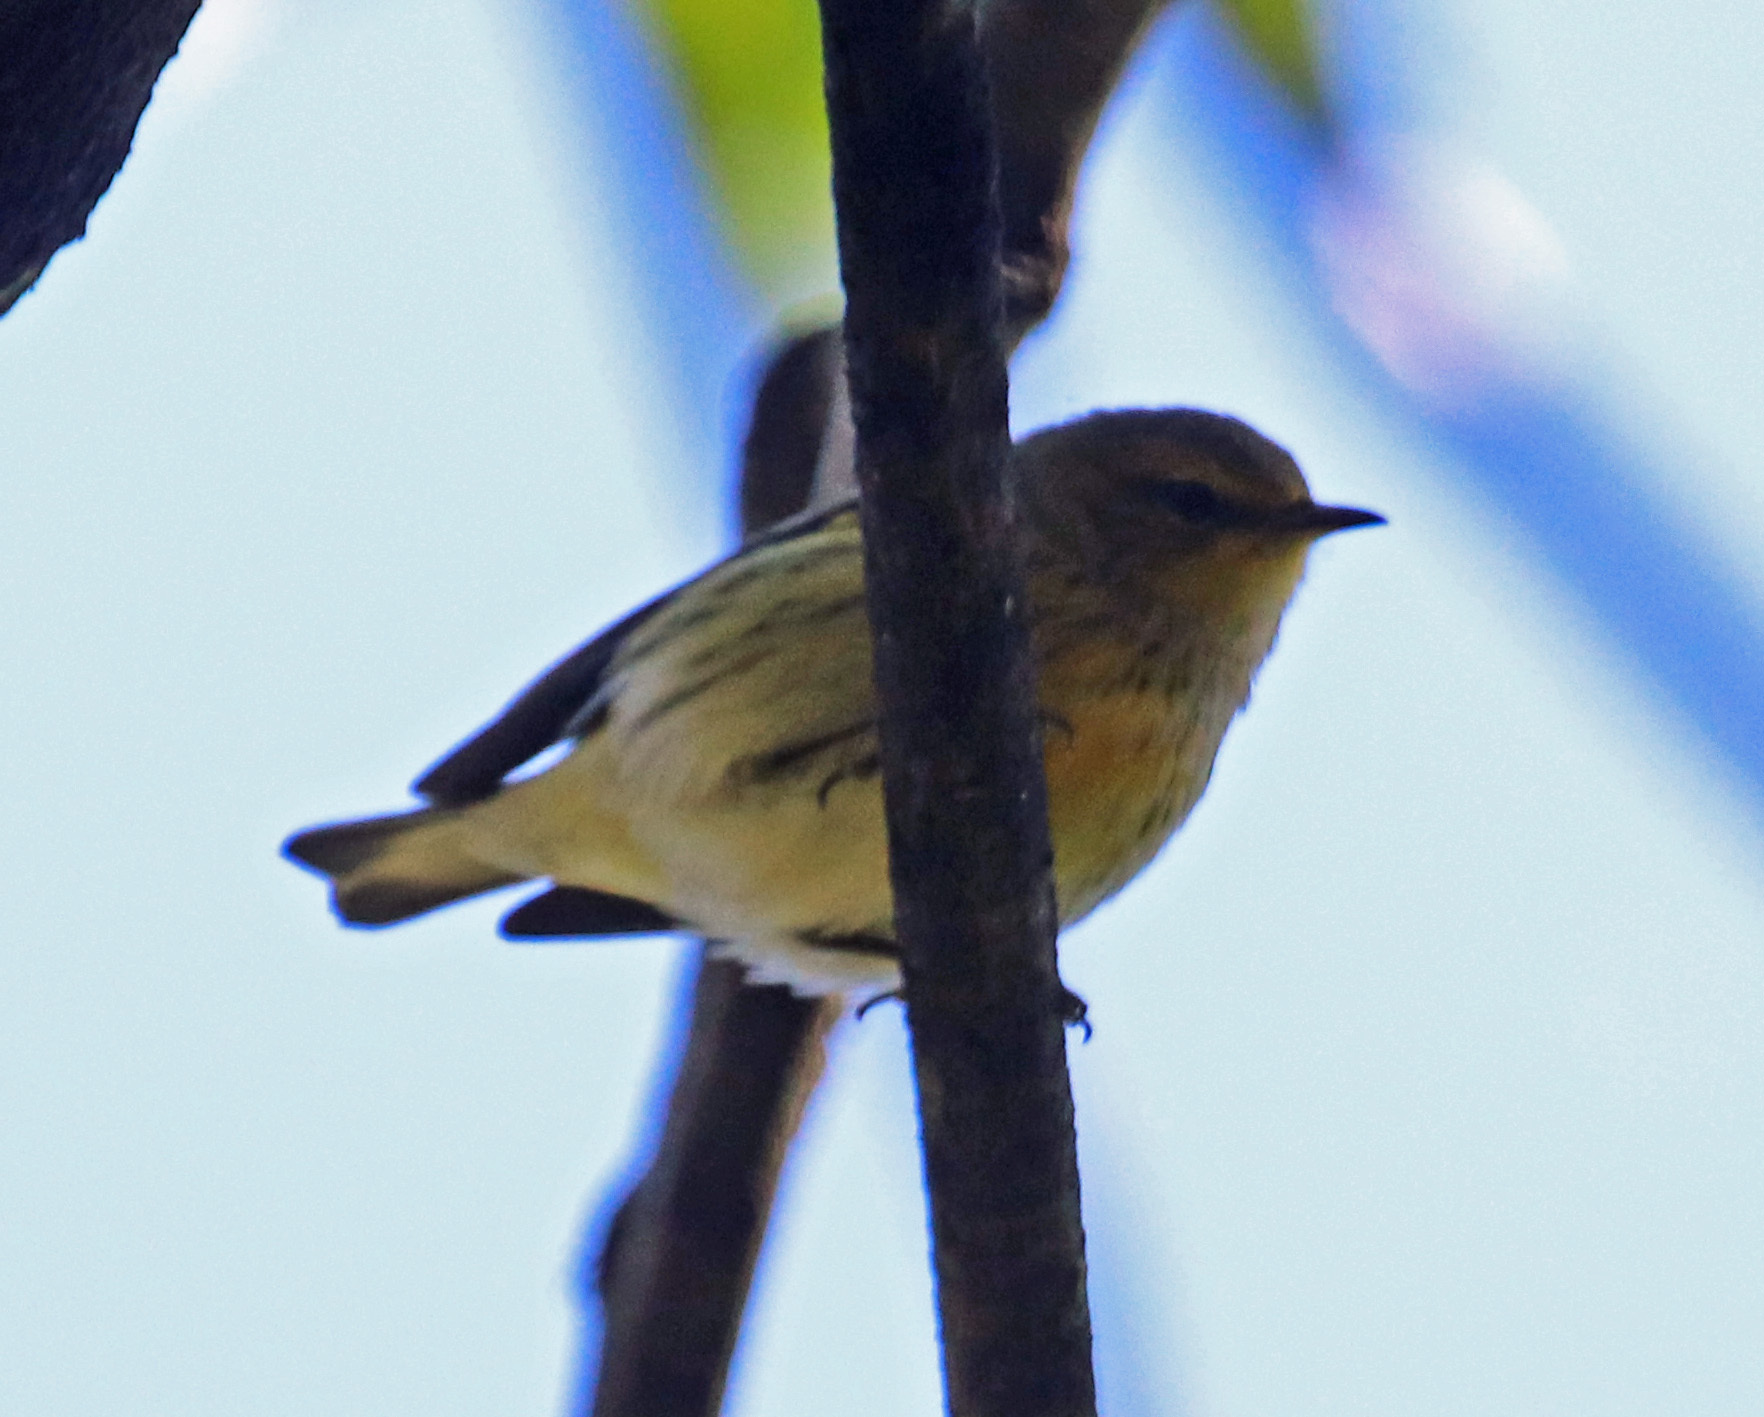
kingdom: Animalia
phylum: Chordata
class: Aves
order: Passeriformes
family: Parulidae
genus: Setophaga
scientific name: Setophaga tigrina
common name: Cape may warbler
